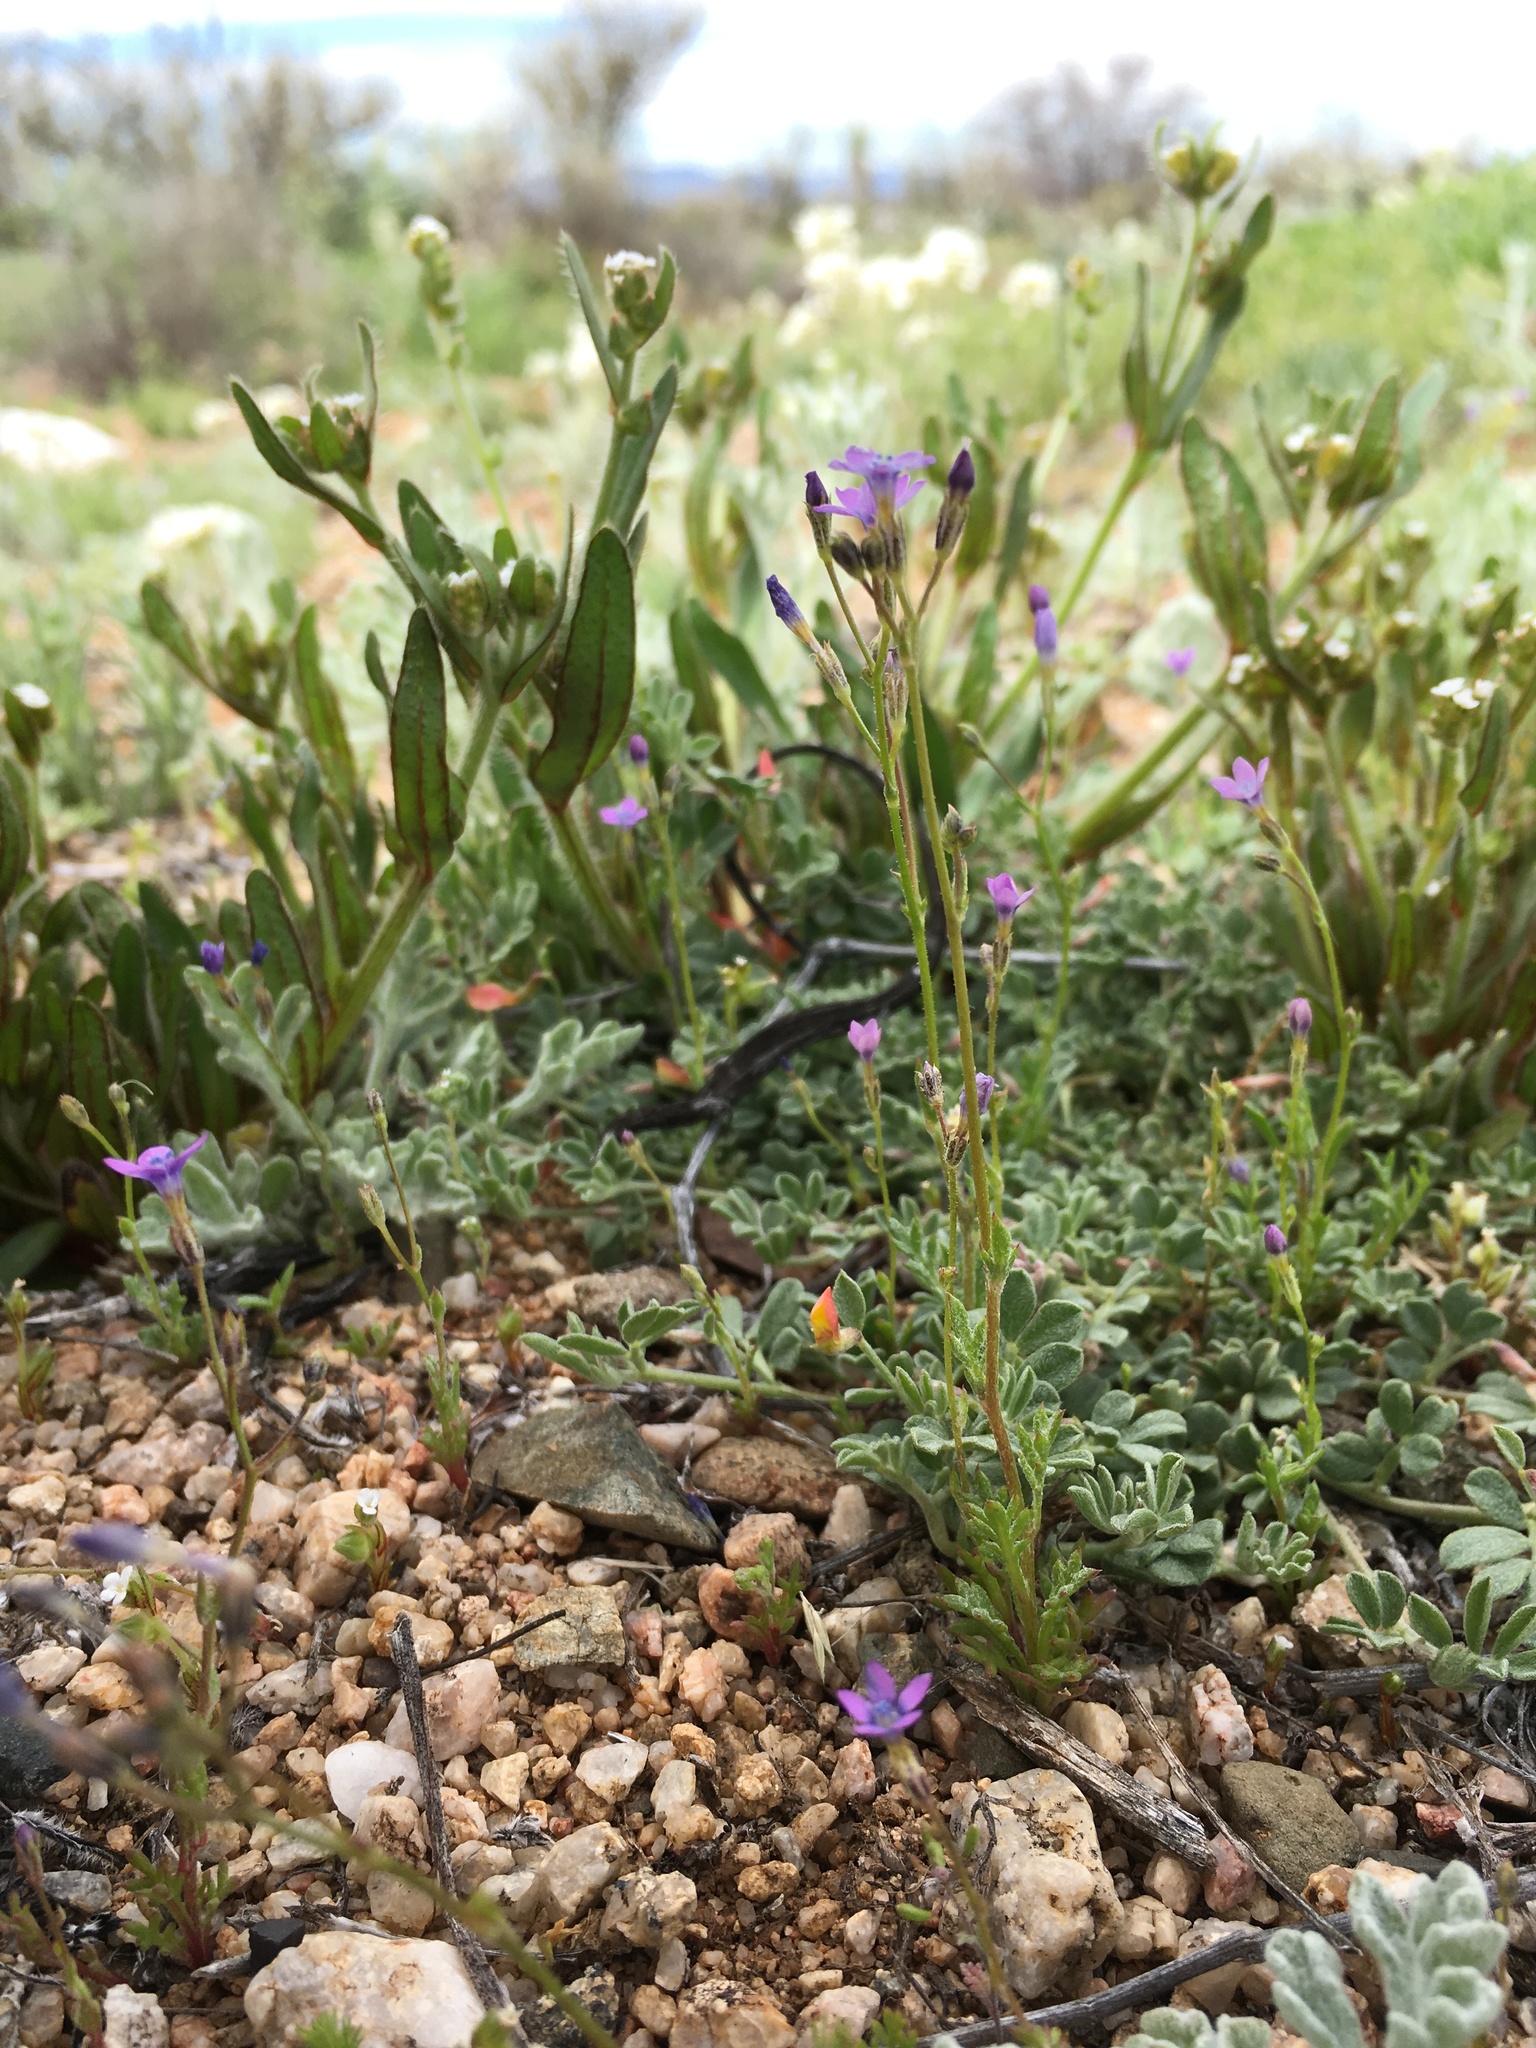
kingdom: Plantae
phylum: Tracheophyta
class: Magnoliopsida
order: Ericales
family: Polemoniaceae
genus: Gilia
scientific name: Gilia mexicana
